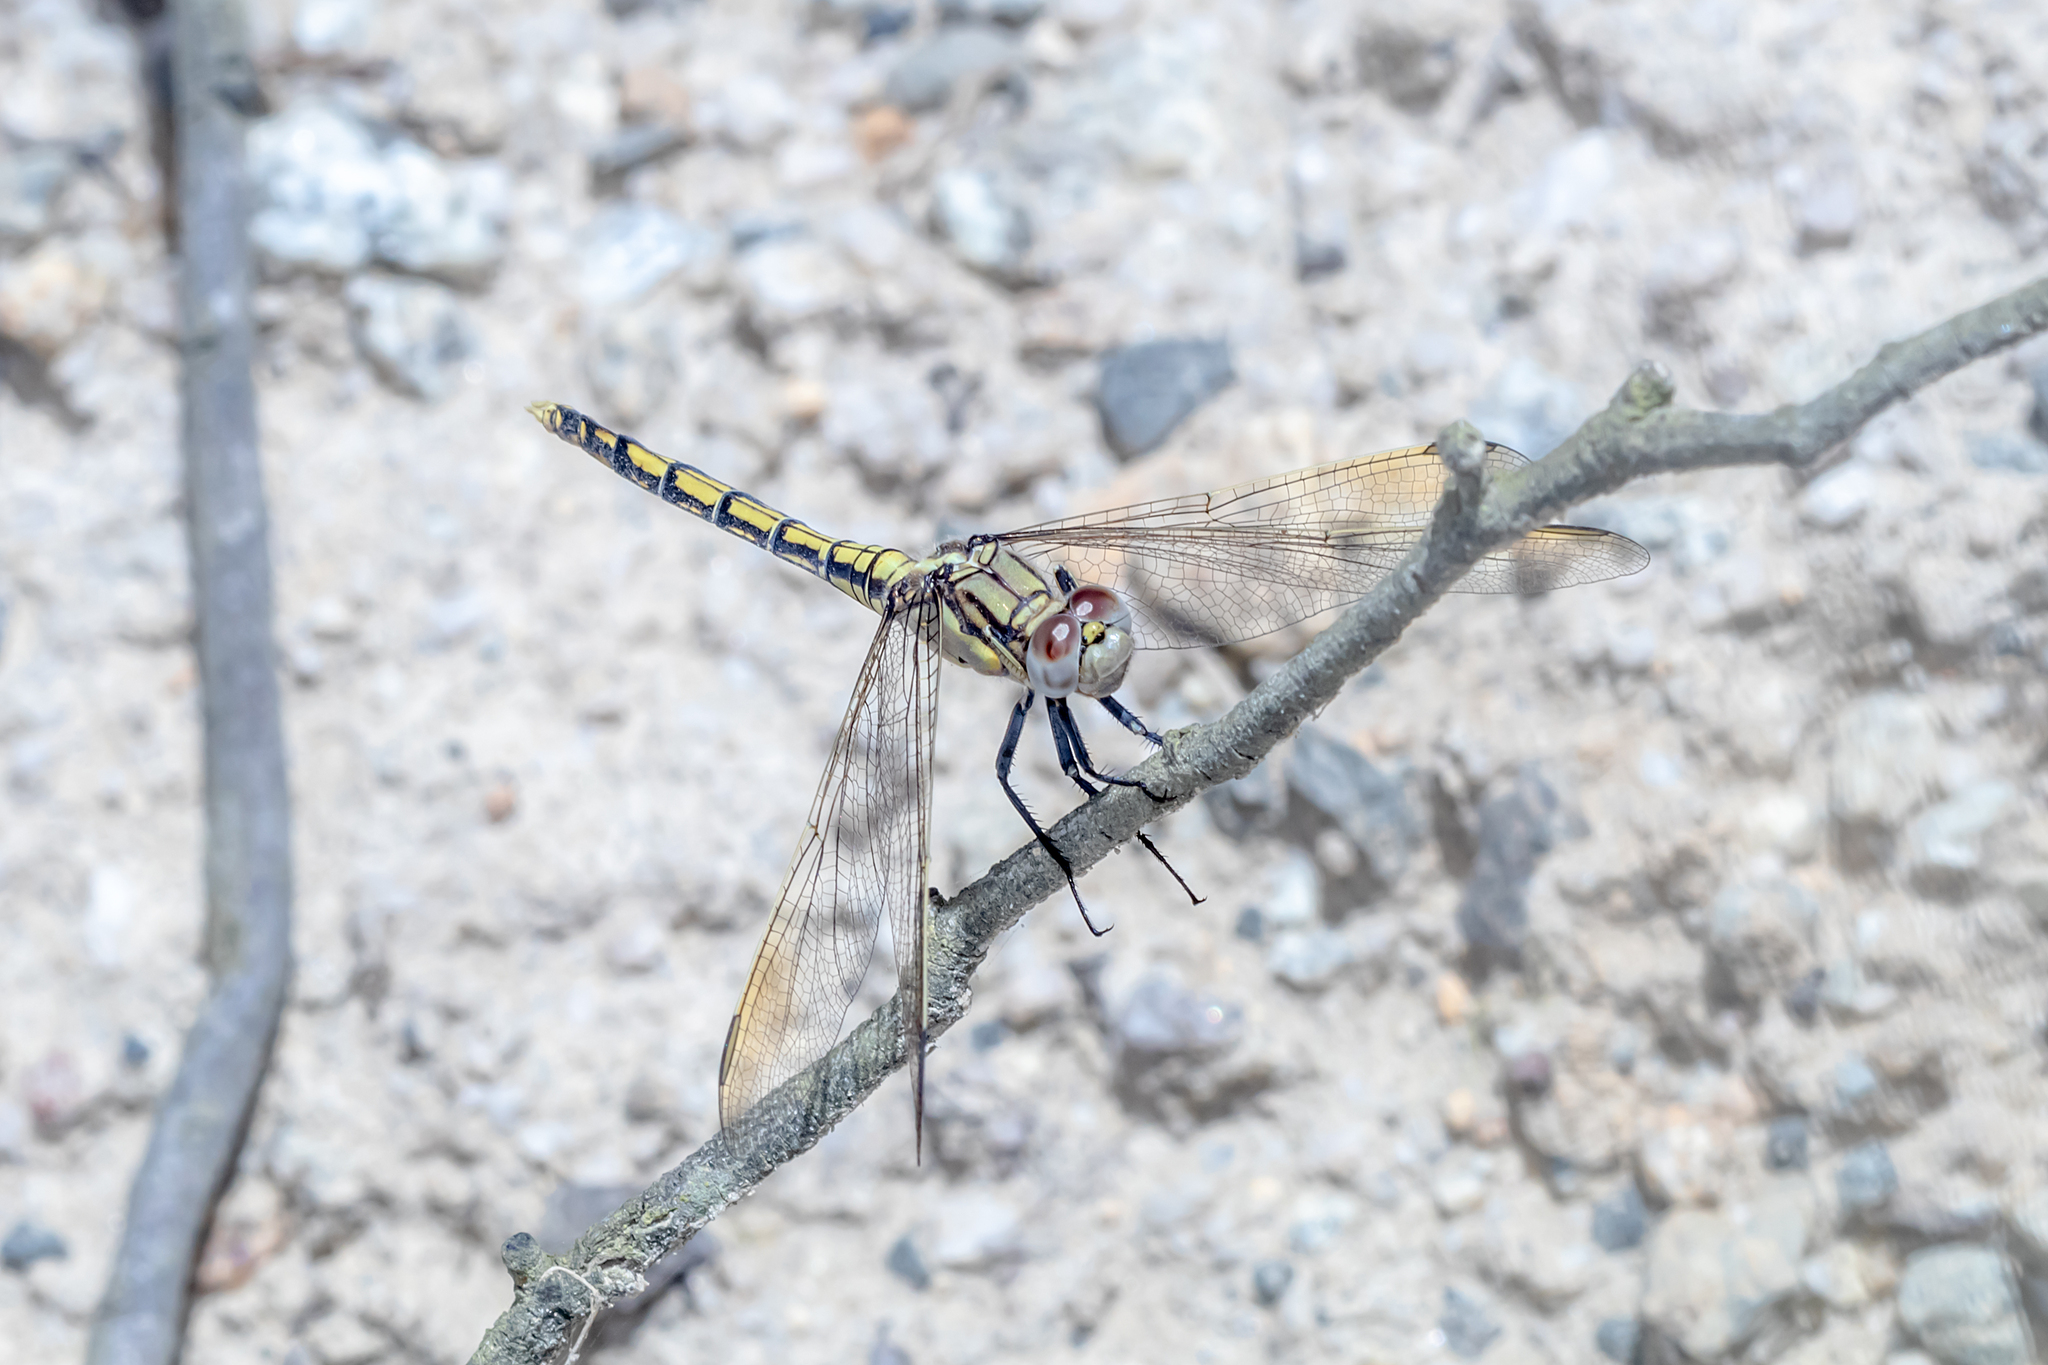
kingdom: Animalia
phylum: Arthropoda
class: Insecta
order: Odonata
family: Libellulidae
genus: Orthetrum
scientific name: Orthetrum caledonicum
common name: Blue skimmer
